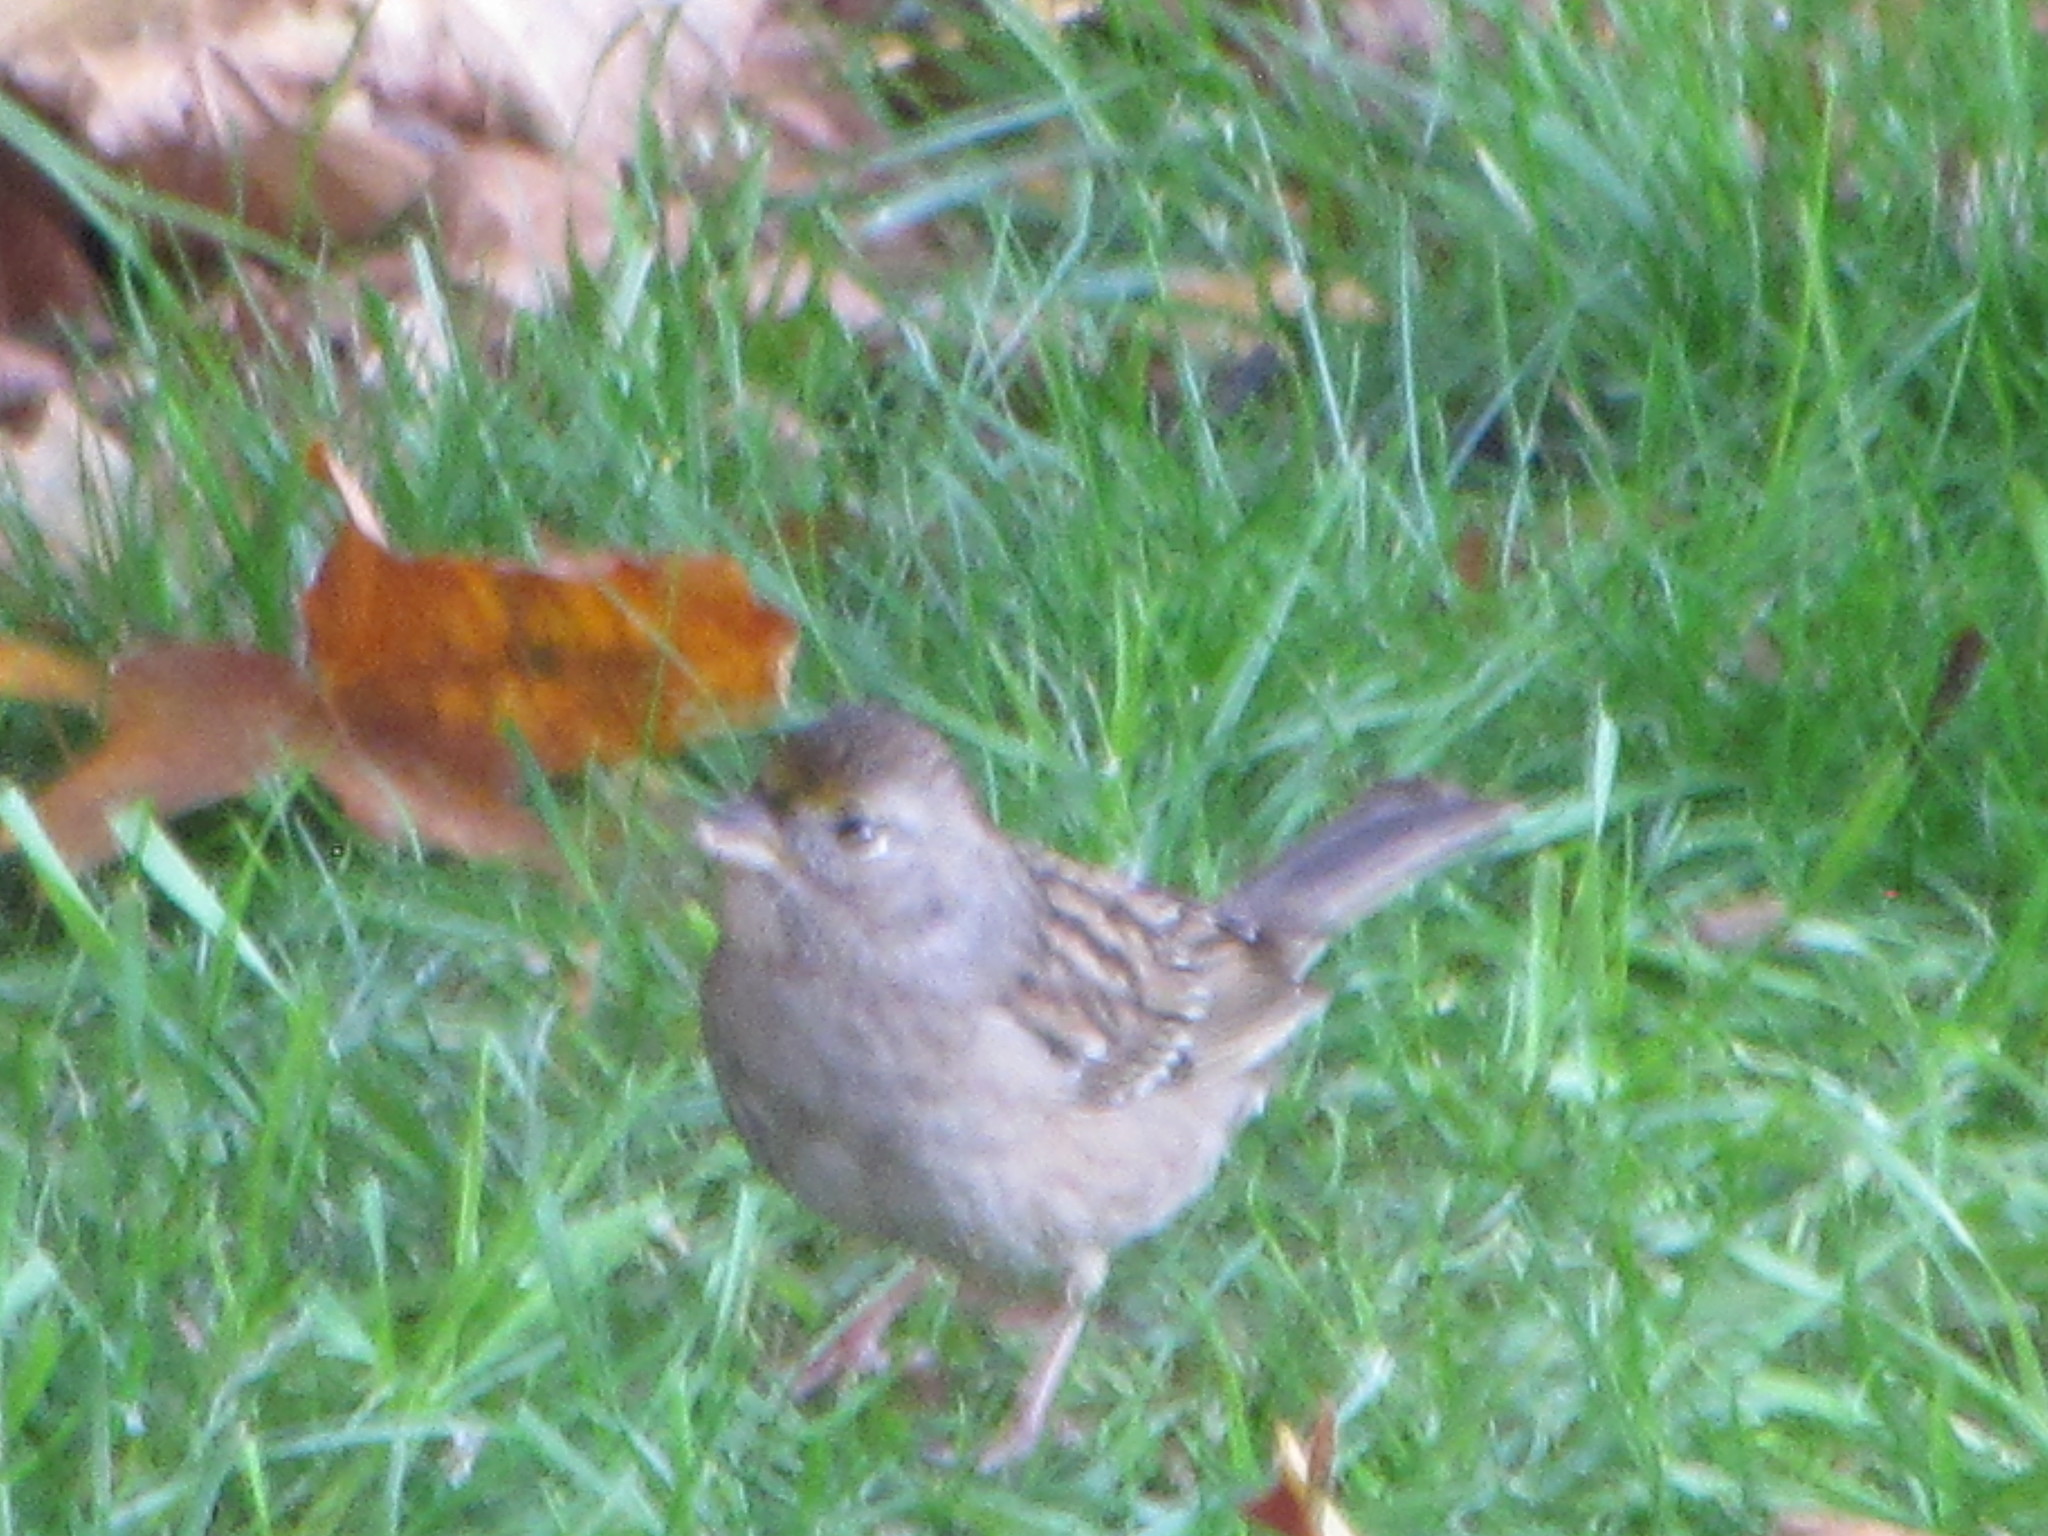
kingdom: Animalia
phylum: Chordata
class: Aves
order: Passeriformes
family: Passerellidae
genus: Zonotrichia
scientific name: Zonotrichia atricapilla
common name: Golden-crowned sparrow
